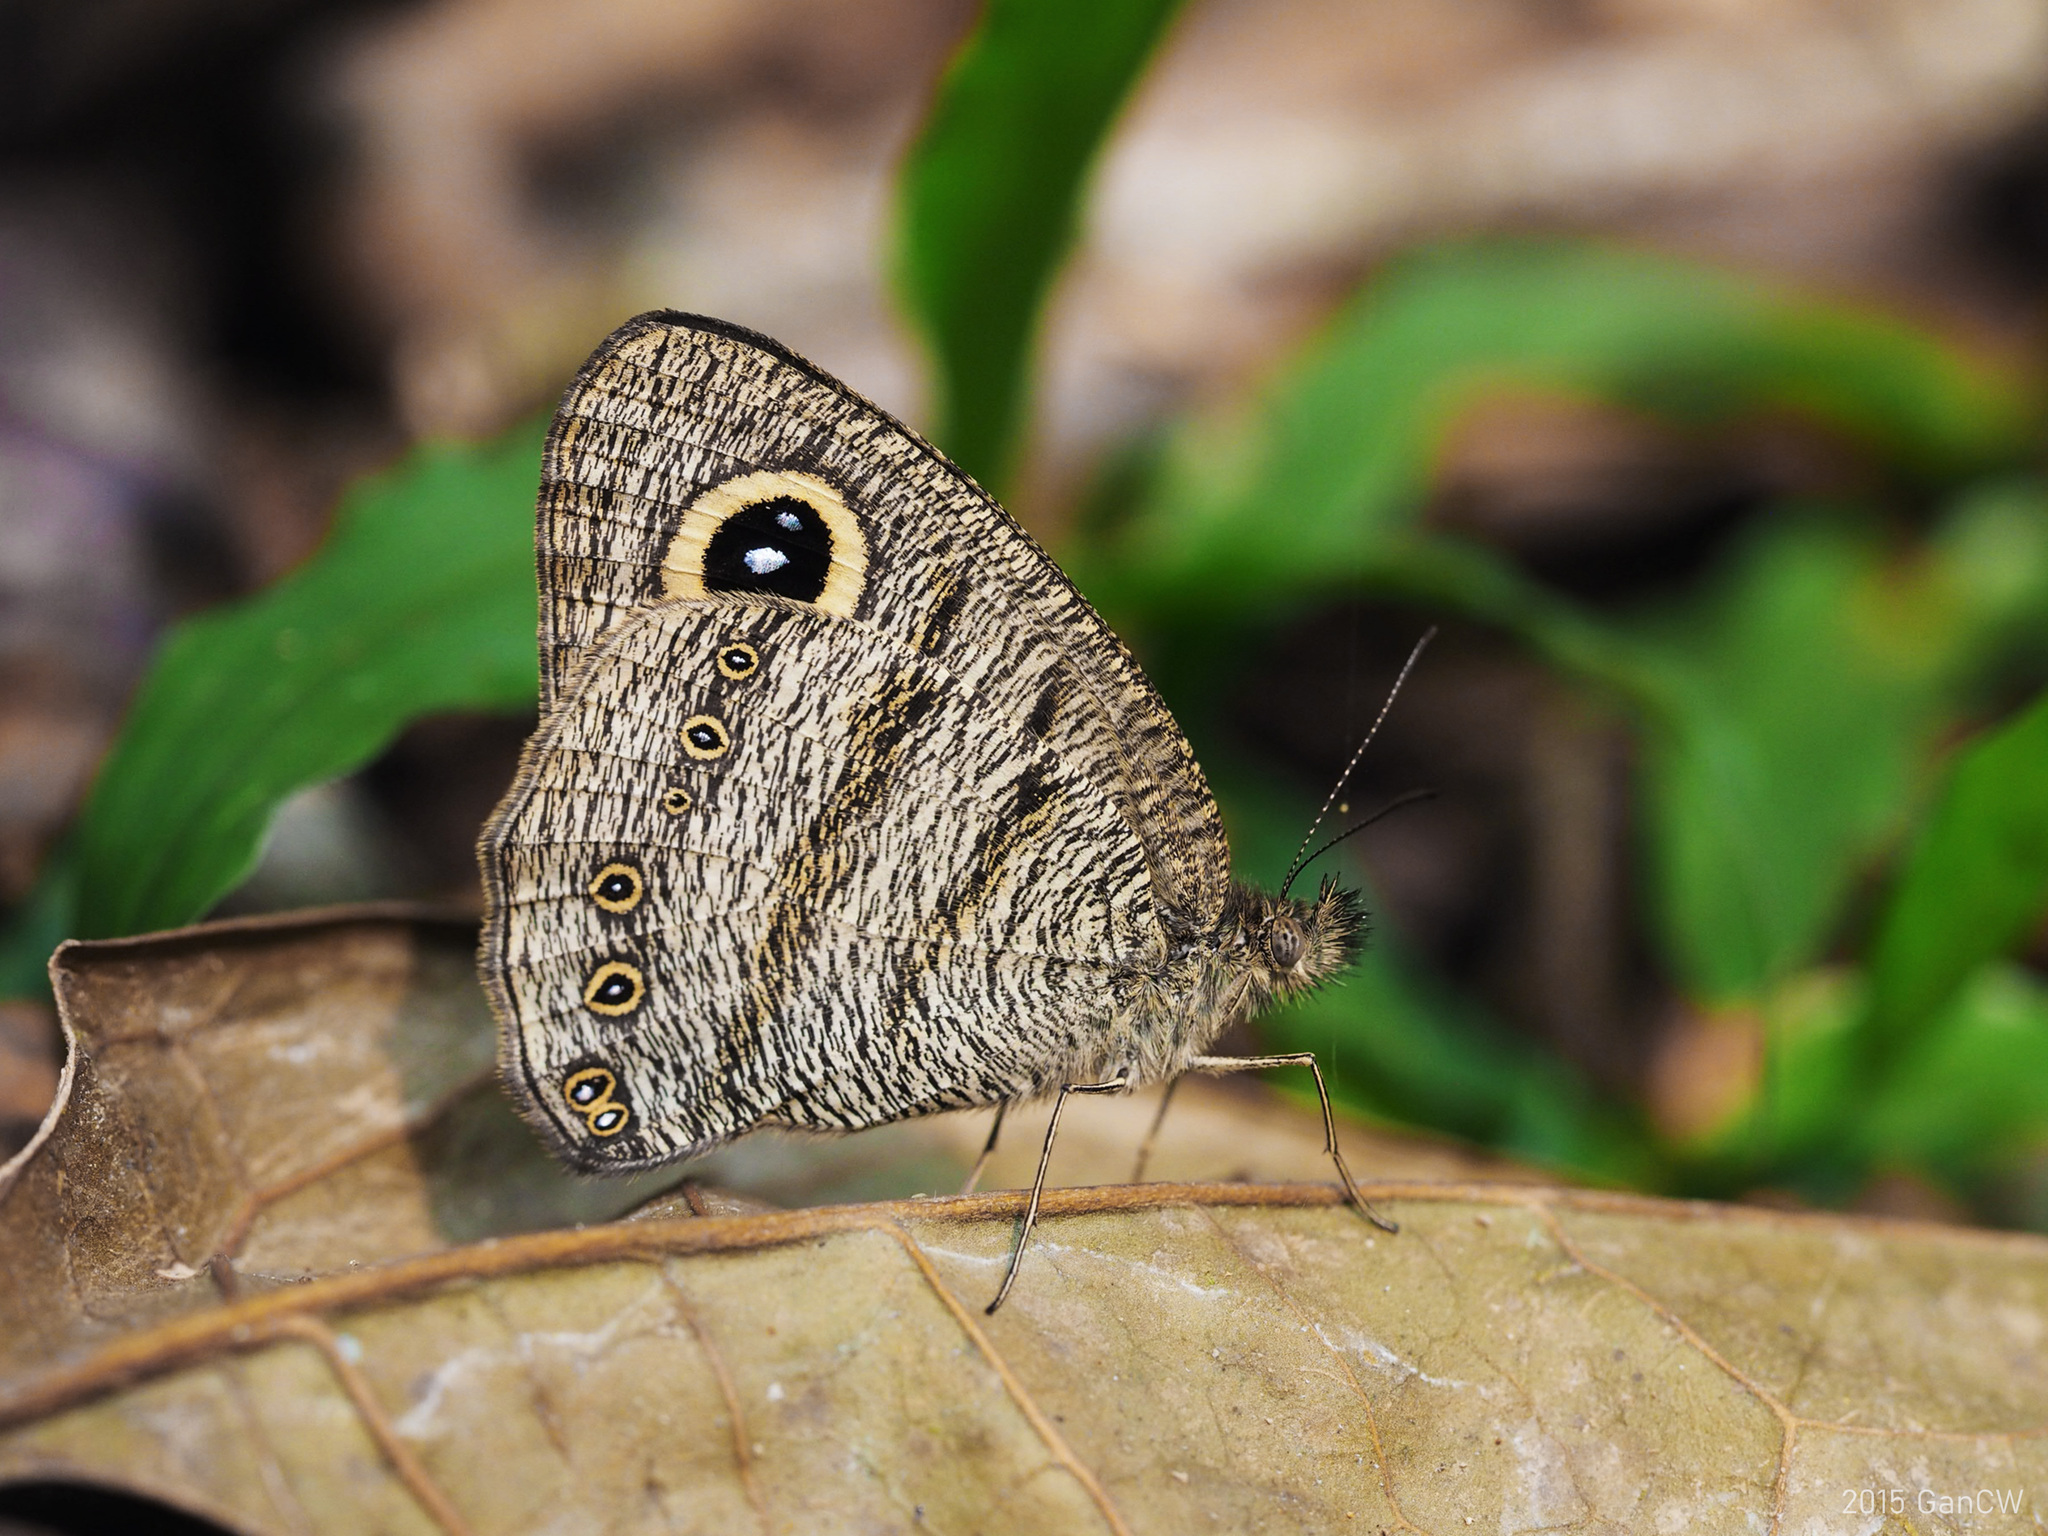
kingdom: Animalia
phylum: Arthropoda
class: Insecta
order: Lepidoptera
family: Nymphalidae
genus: Ypthima
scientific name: Ypthima fasciata
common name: Malayan six-ring
